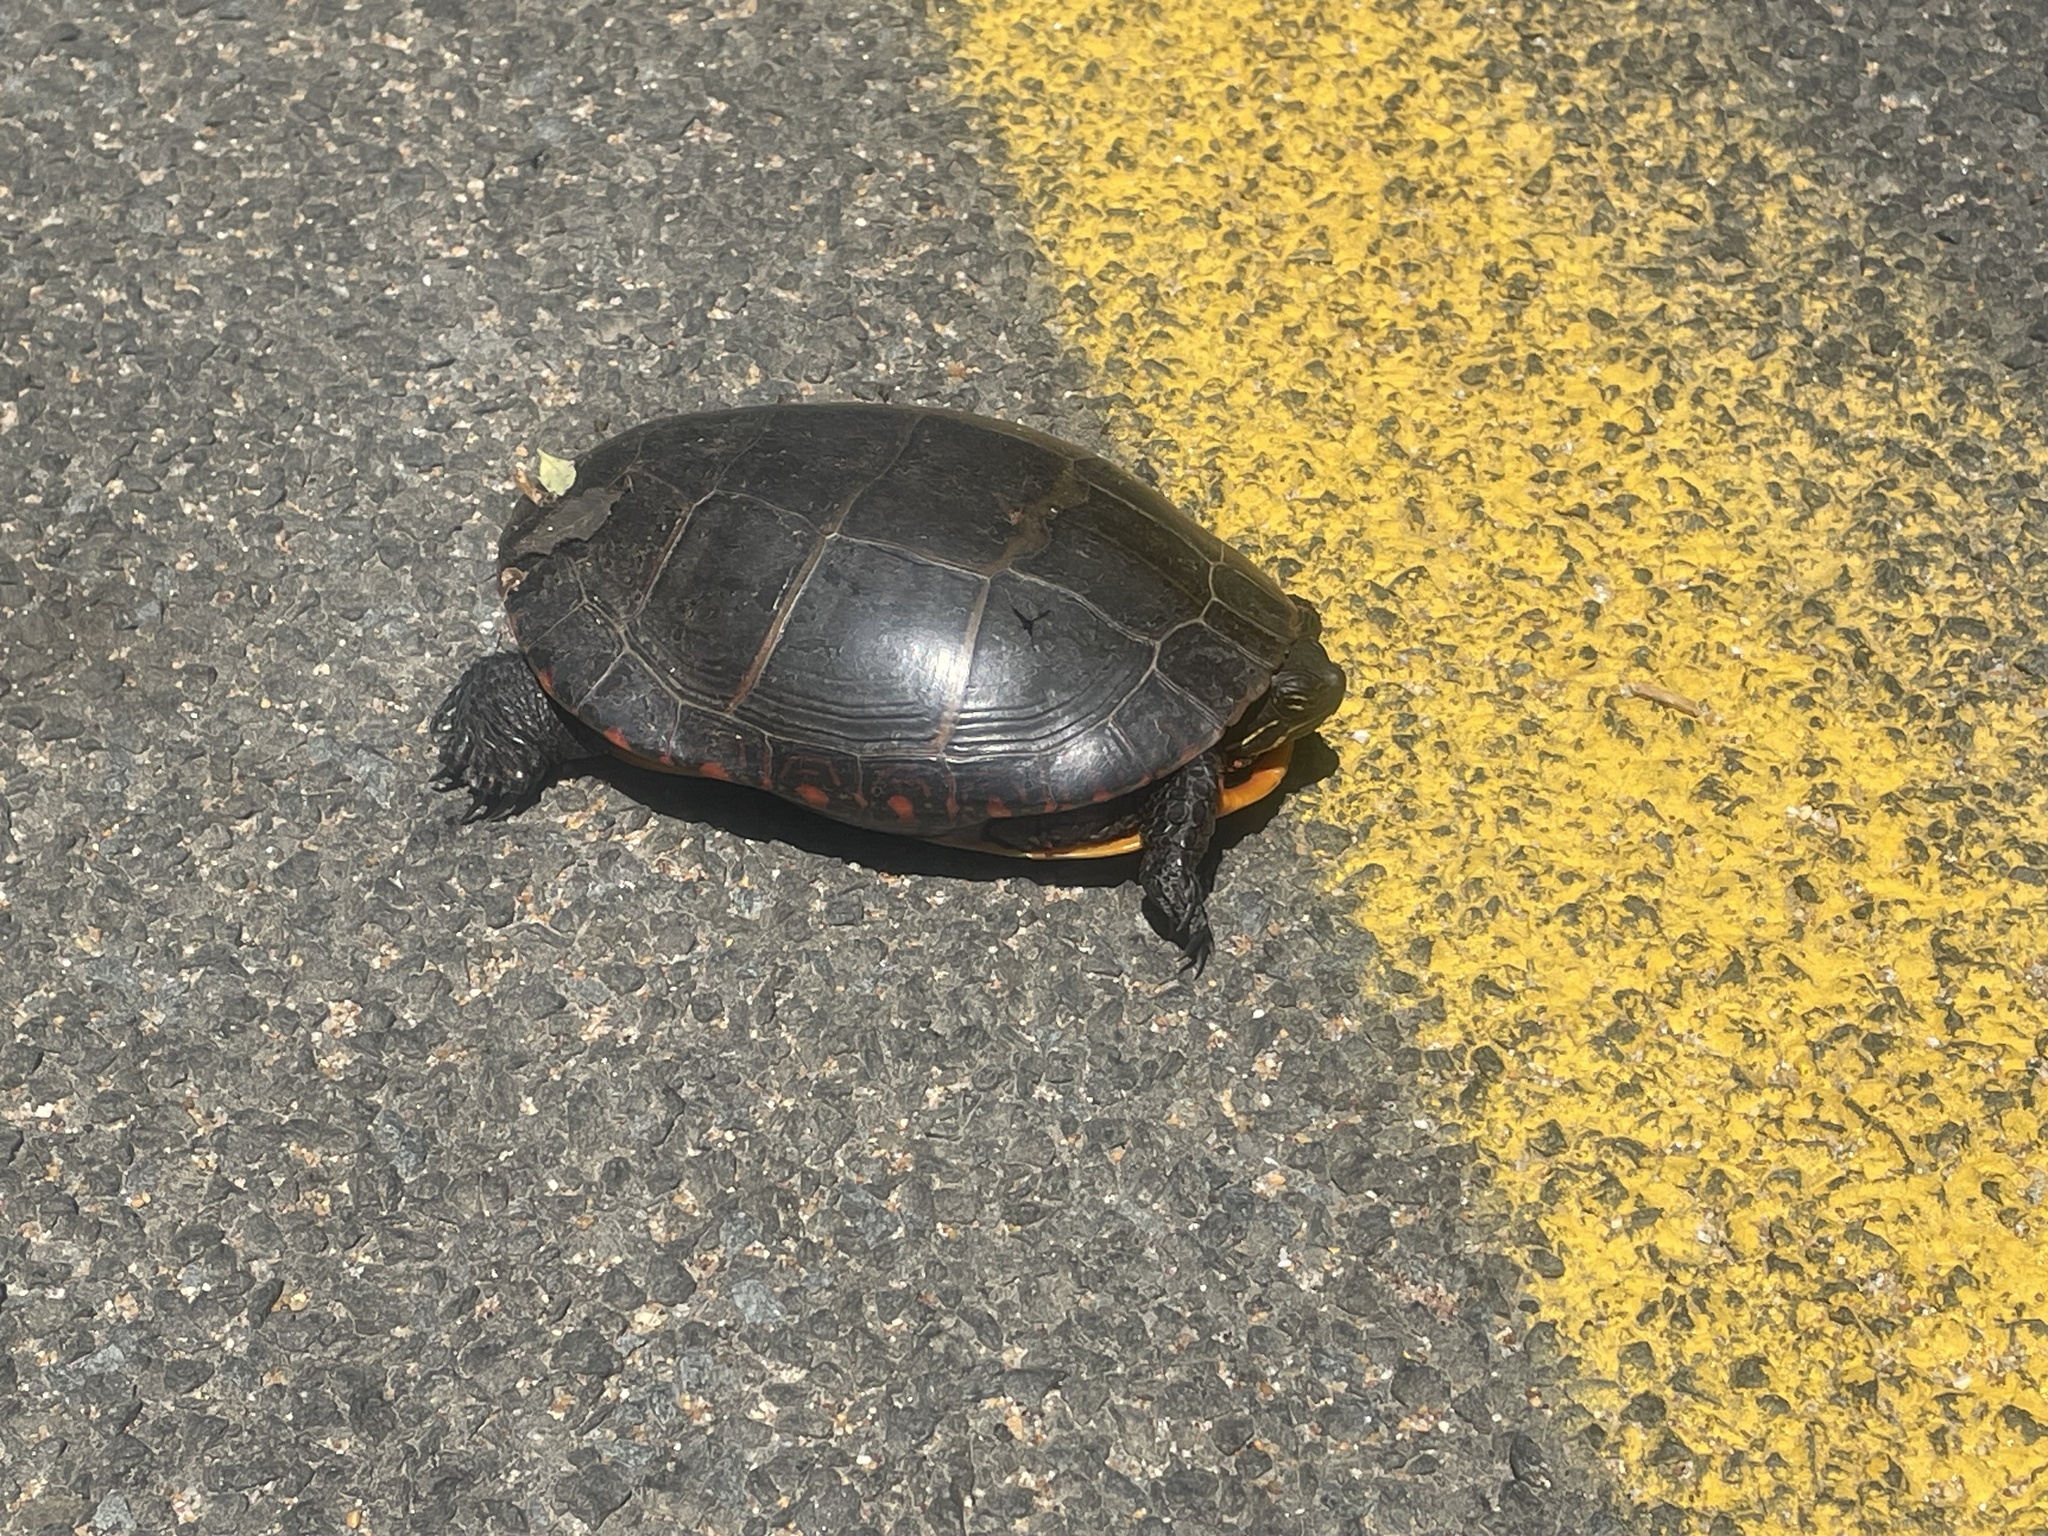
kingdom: Animalia
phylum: Chordata
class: Testudines
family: Emydidae
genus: Chrysemys
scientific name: Chrysemys picta
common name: Painted turtle
